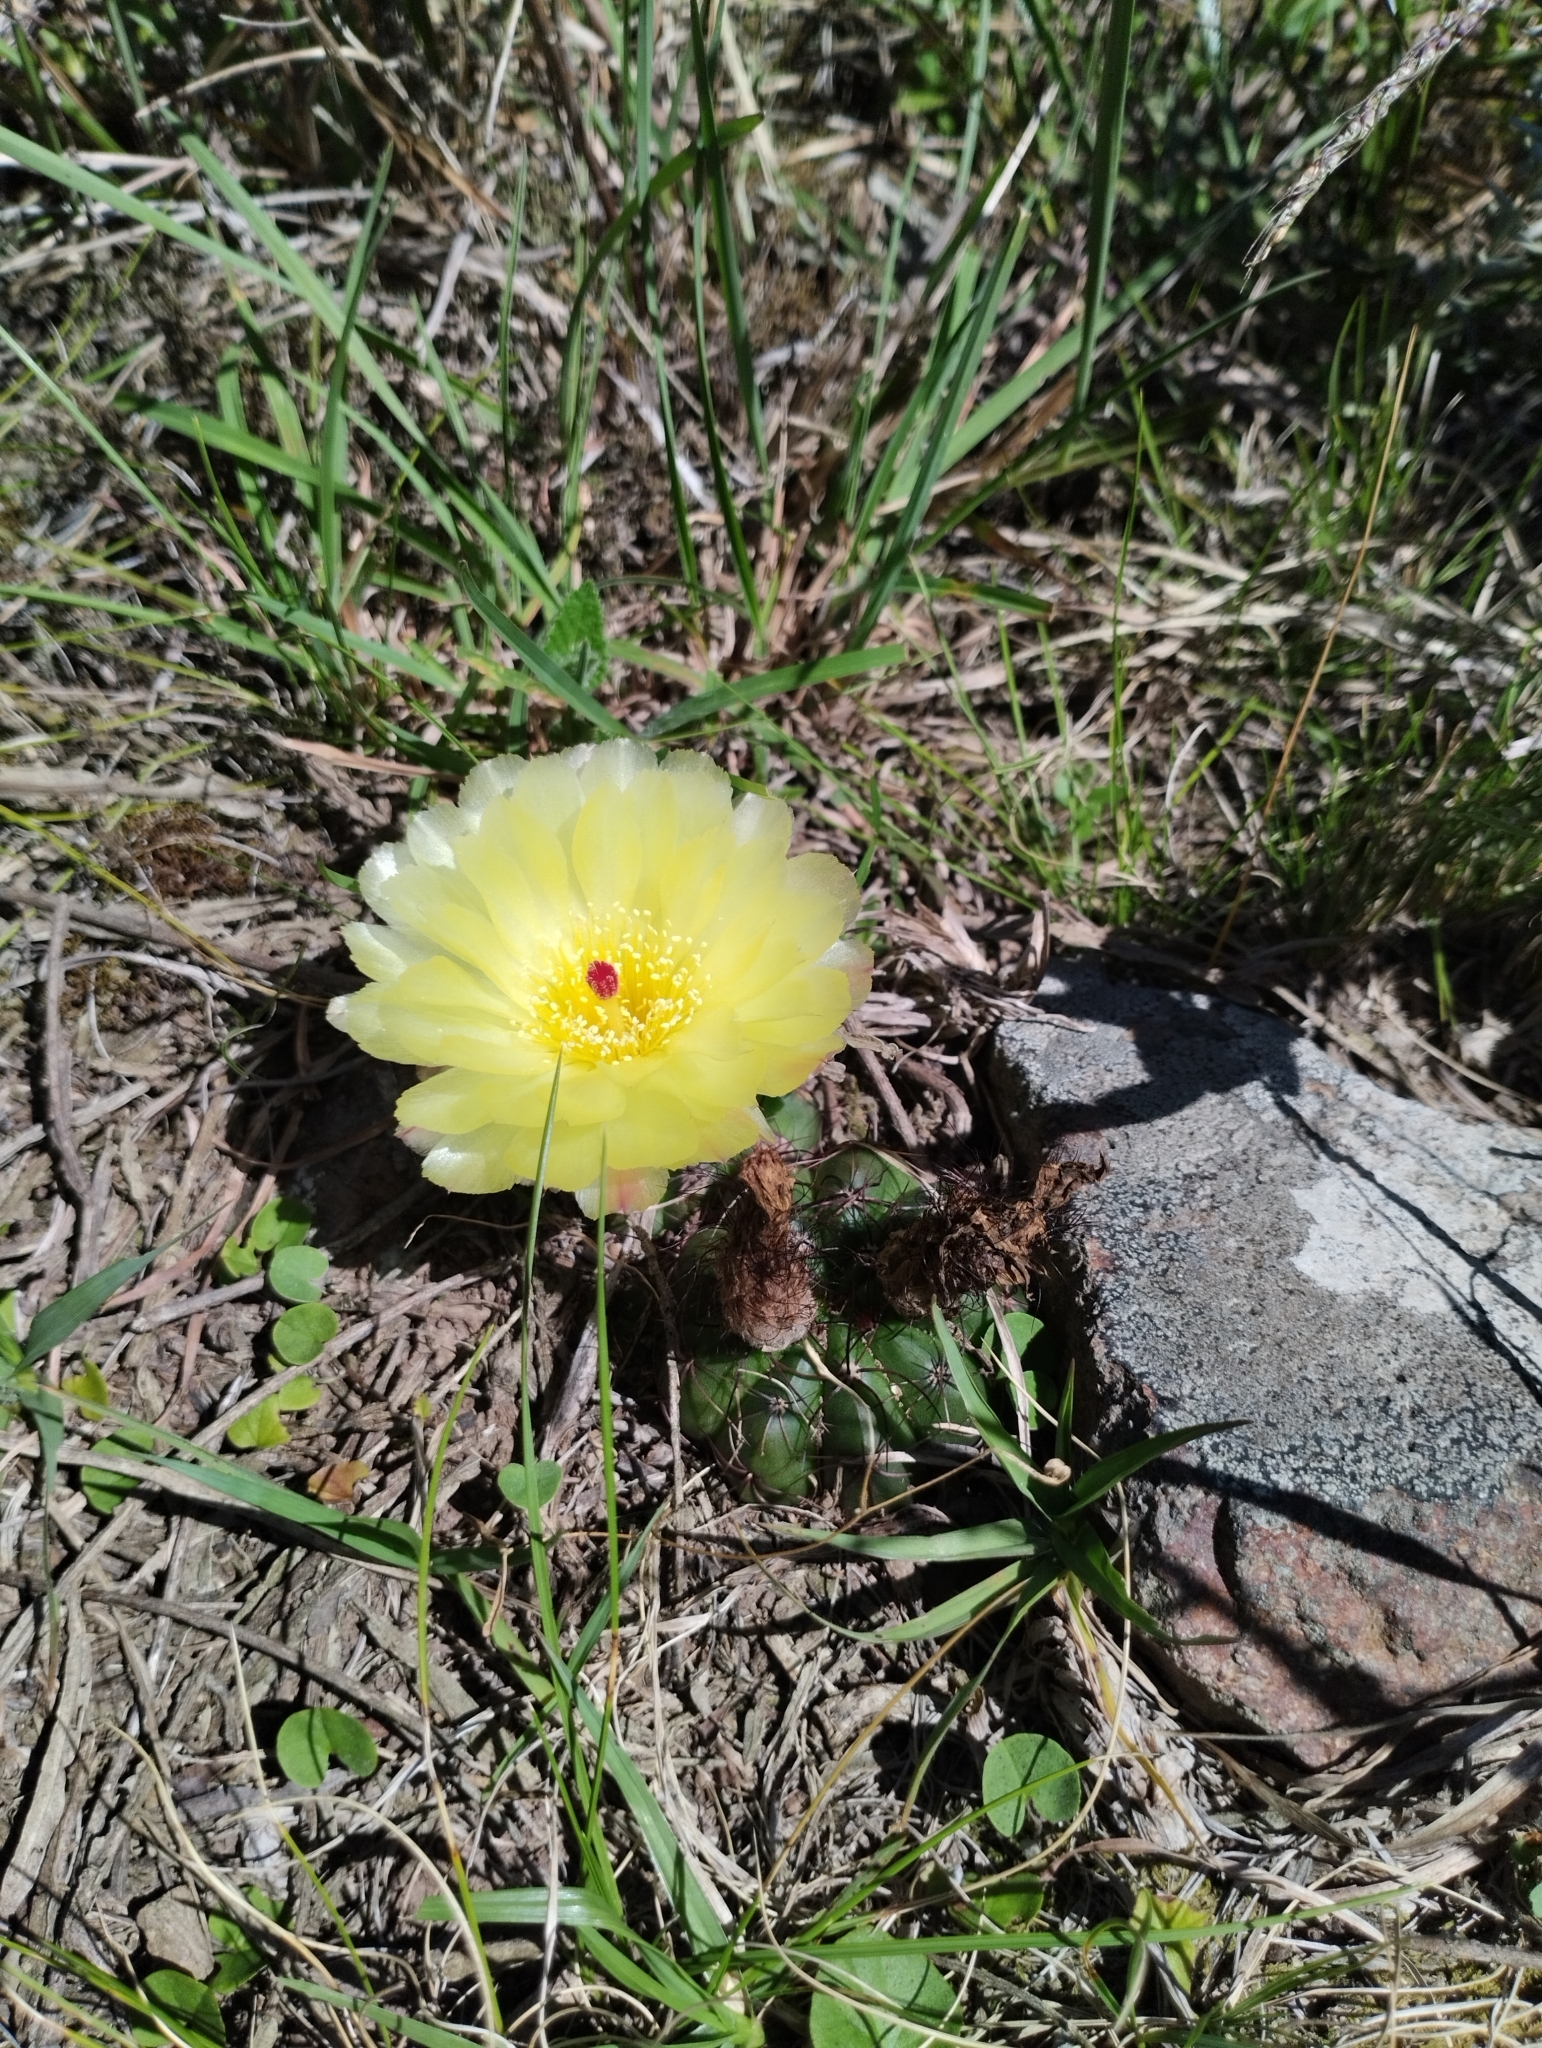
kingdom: Plantae
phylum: Tracheophyta
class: Magnoliopsida
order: Caryophyllales
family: Cactaceae
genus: Parodia
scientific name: Parodia ottonis
